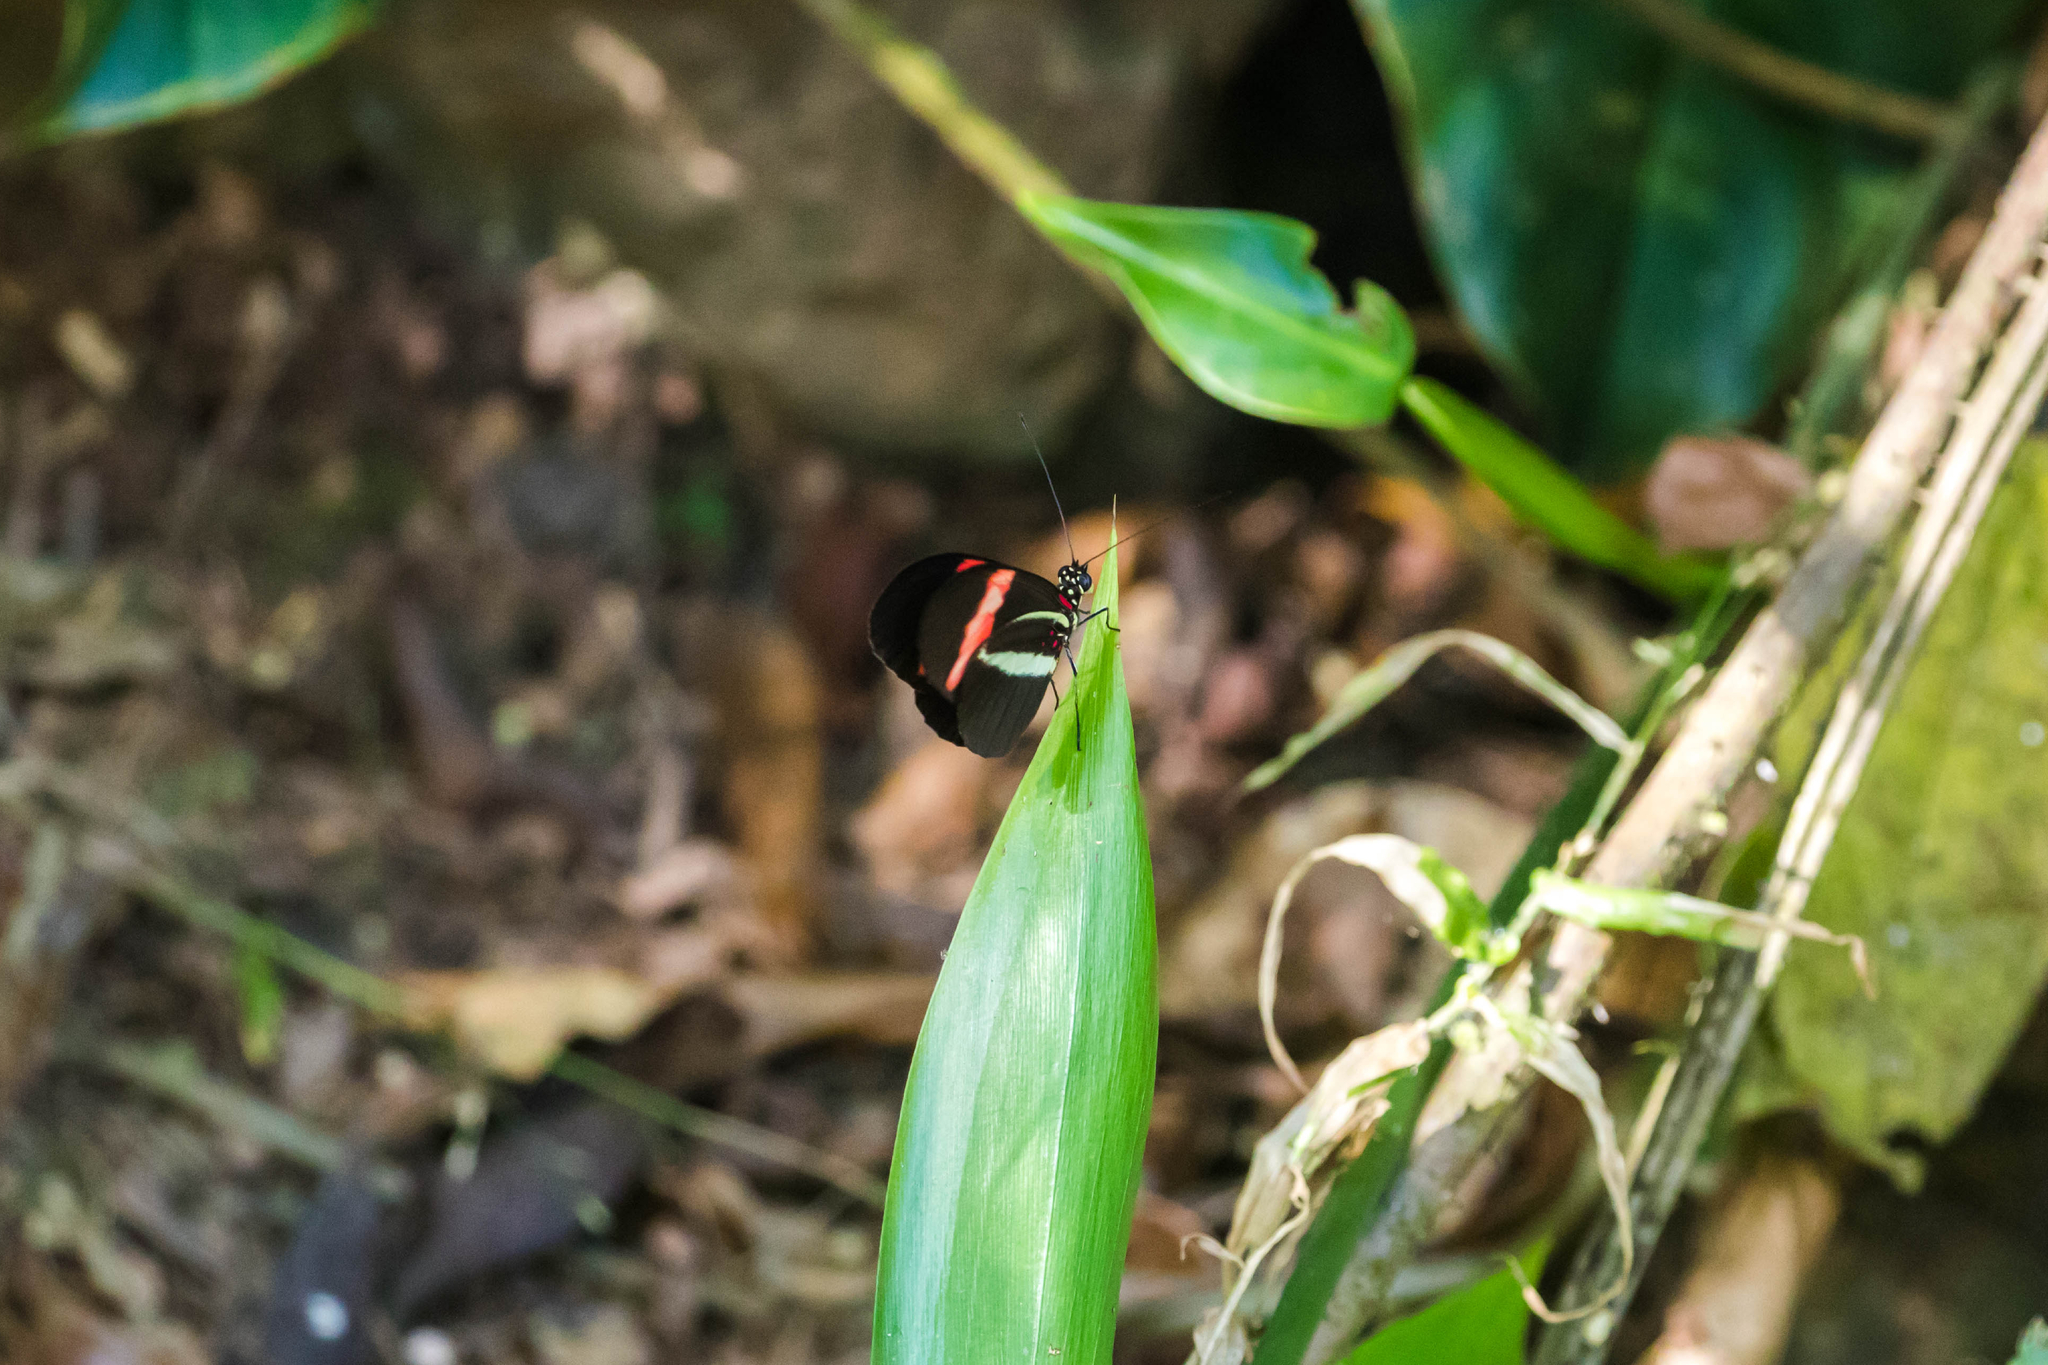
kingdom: Animalia
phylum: Arthropoda
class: Insecta
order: Lepidoptera
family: Nymphalidae
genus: Tirumala
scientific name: Tirumala petiverana
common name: Blue monarch
